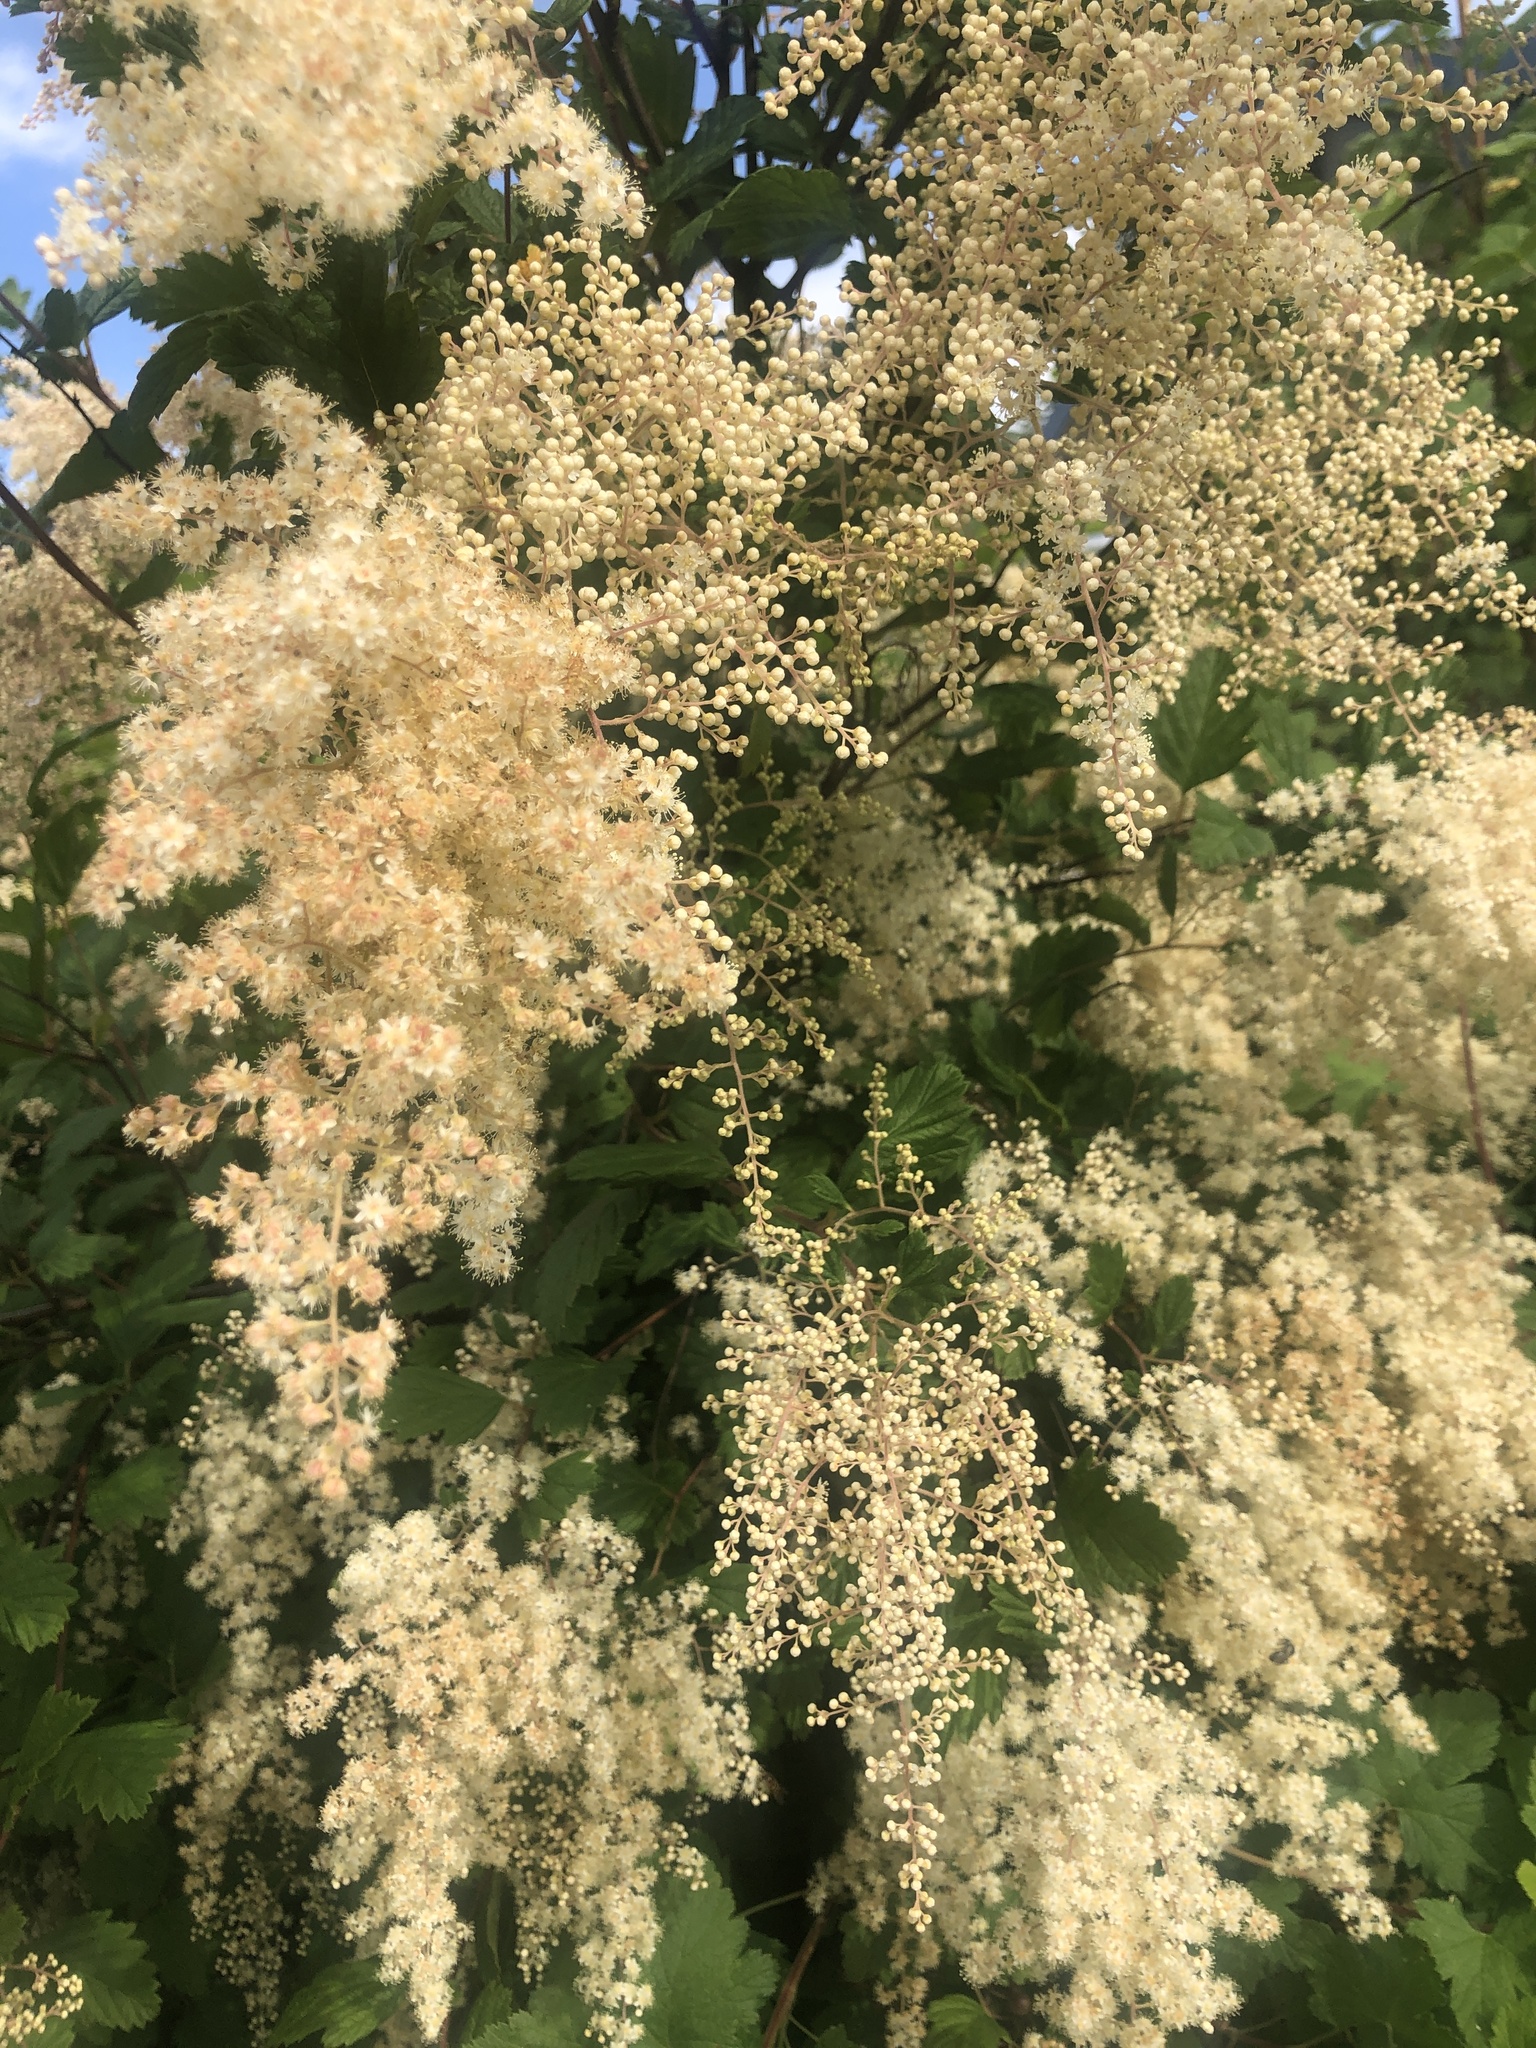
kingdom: Plantae
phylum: Tracheophyta
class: Magnoliopsida
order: Rosales
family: Rosaceae
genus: Holodiscus
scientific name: Holodiscus discolor
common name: Oceanspray
